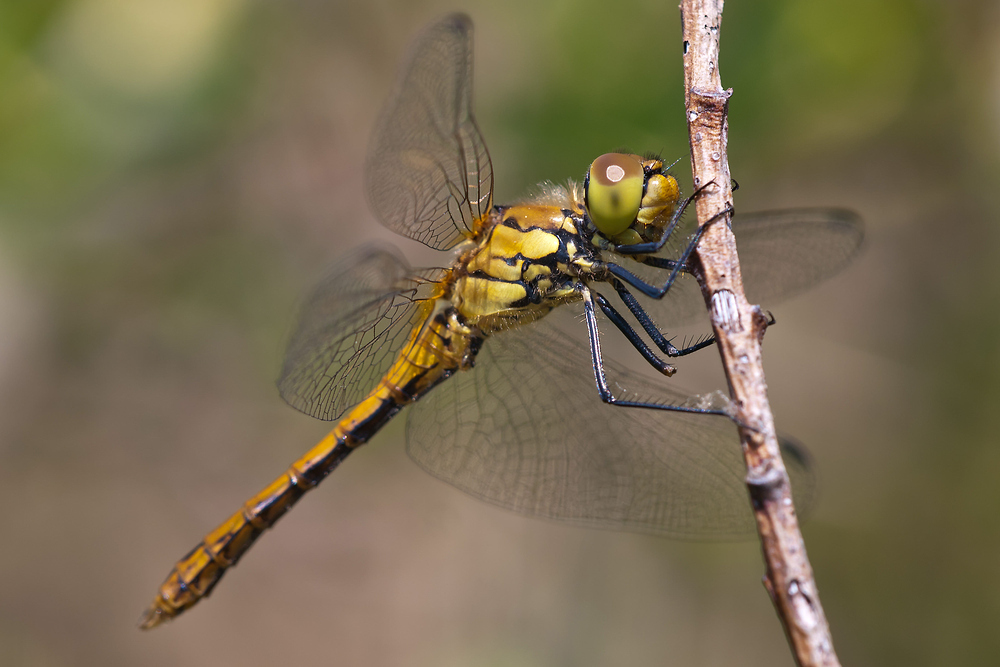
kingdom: Animalia
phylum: Arthropoda
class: Insecta
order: Odonata
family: Libellulidae
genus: Sympetrum
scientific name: Sympetrum sanguineum
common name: Ruddy darter
